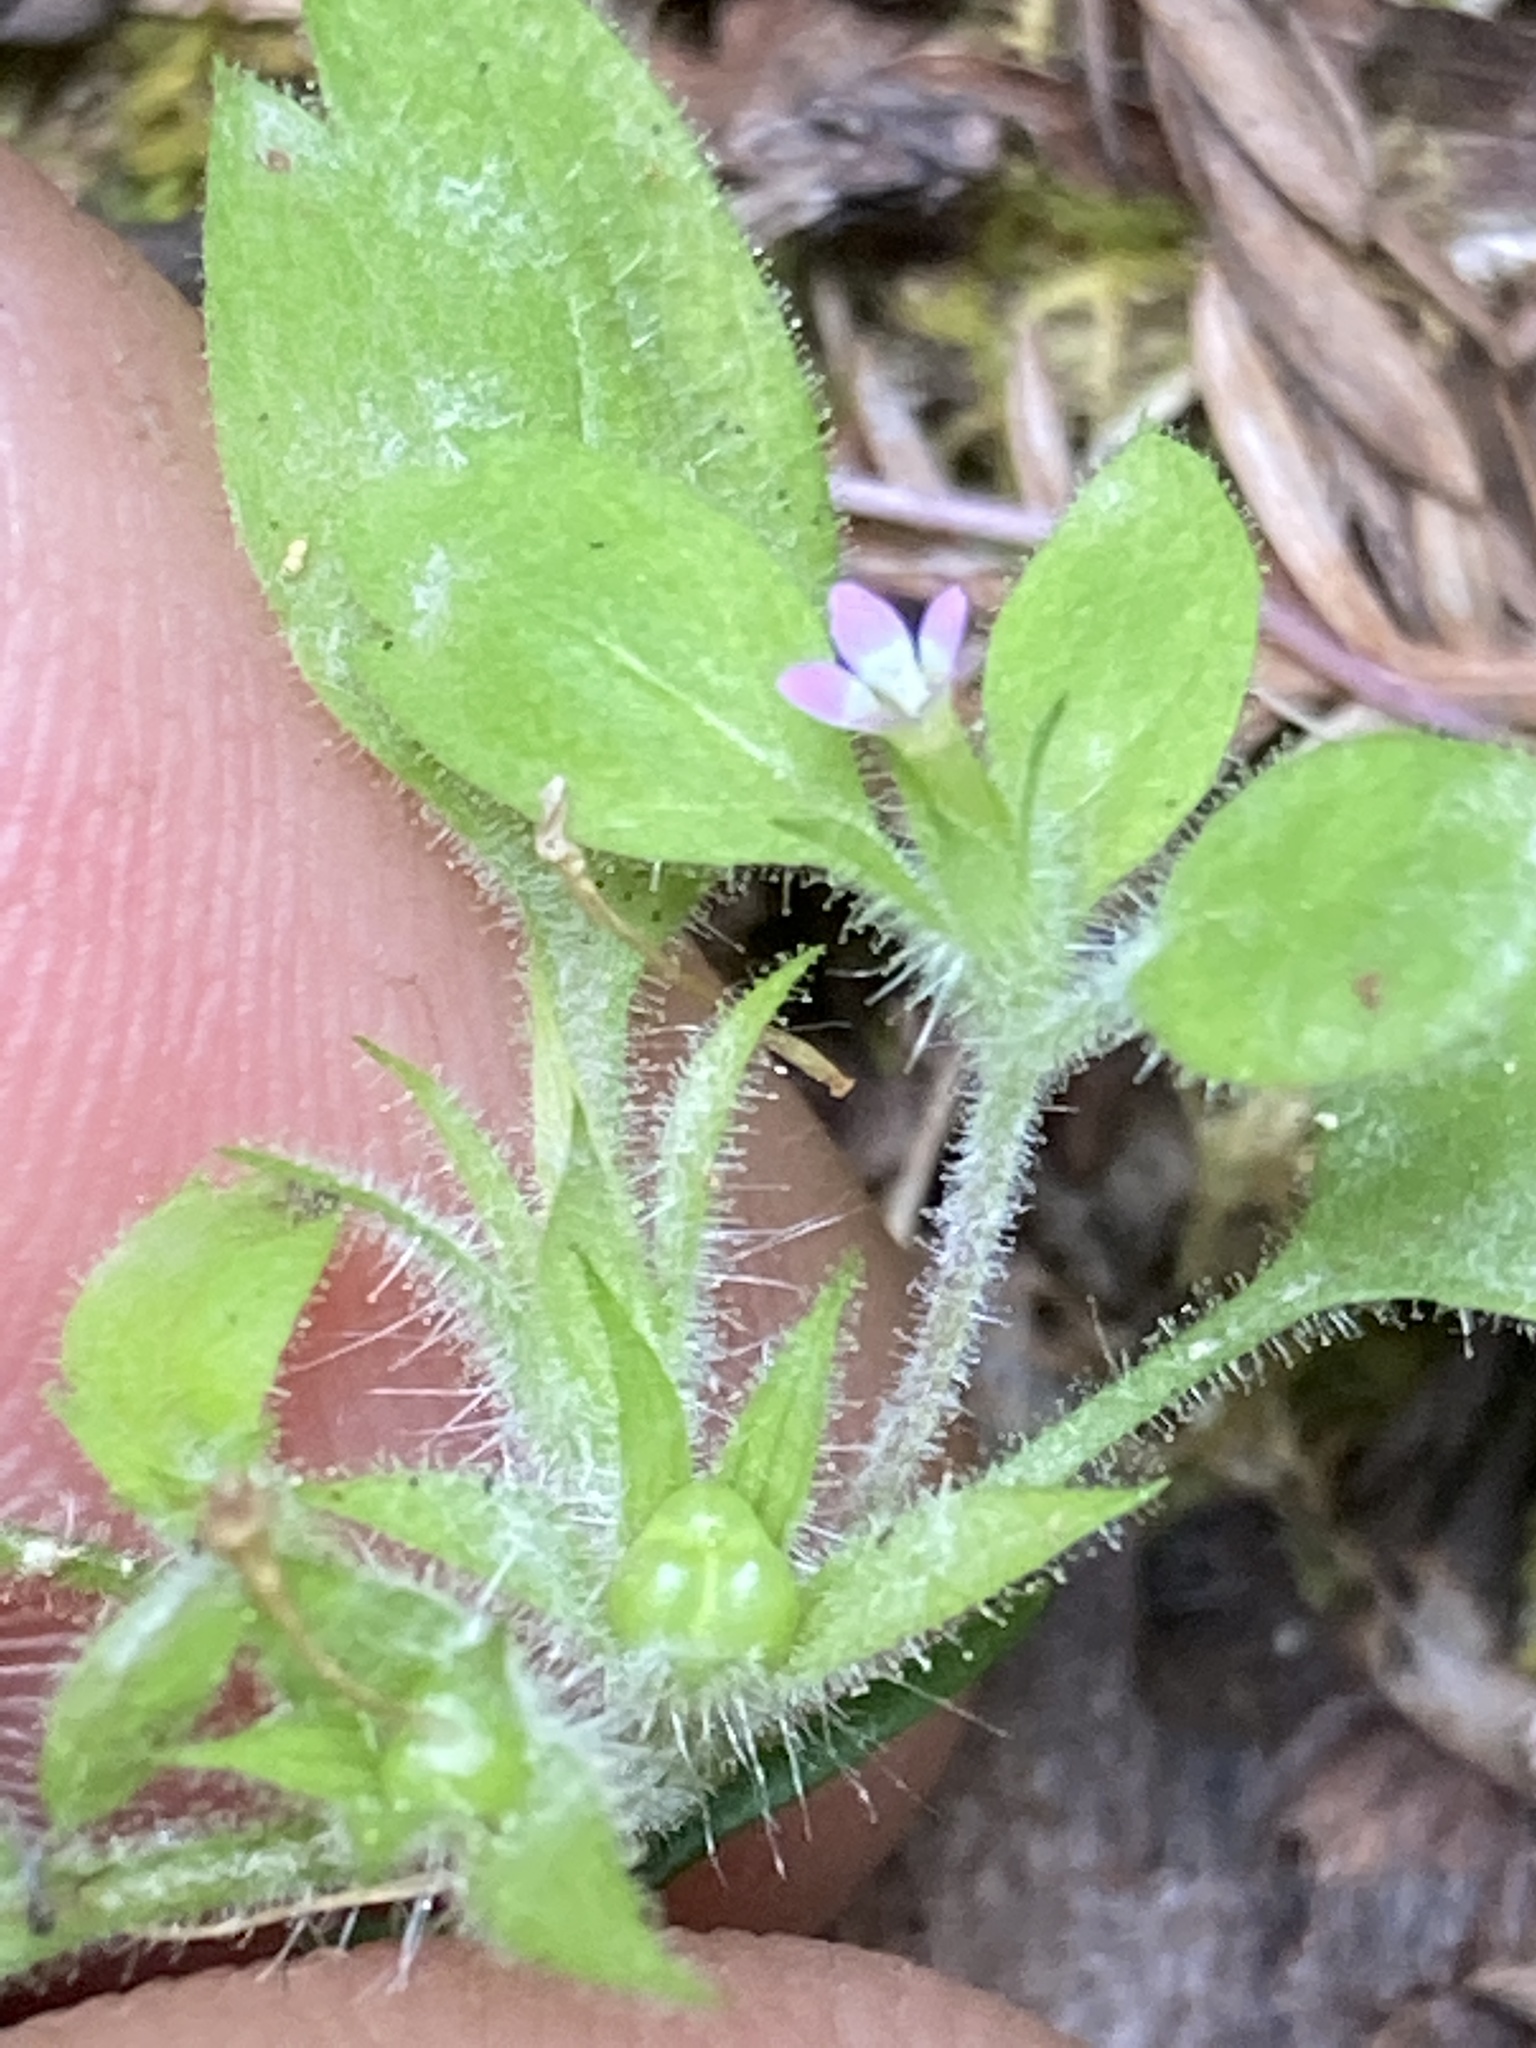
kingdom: Plantae
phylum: Tracheophyta
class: Magnoliopsida
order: Ericales
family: Polemoniaceae
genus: Collomia
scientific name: Collomia heterophylla
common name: Variable-leaved collomia
